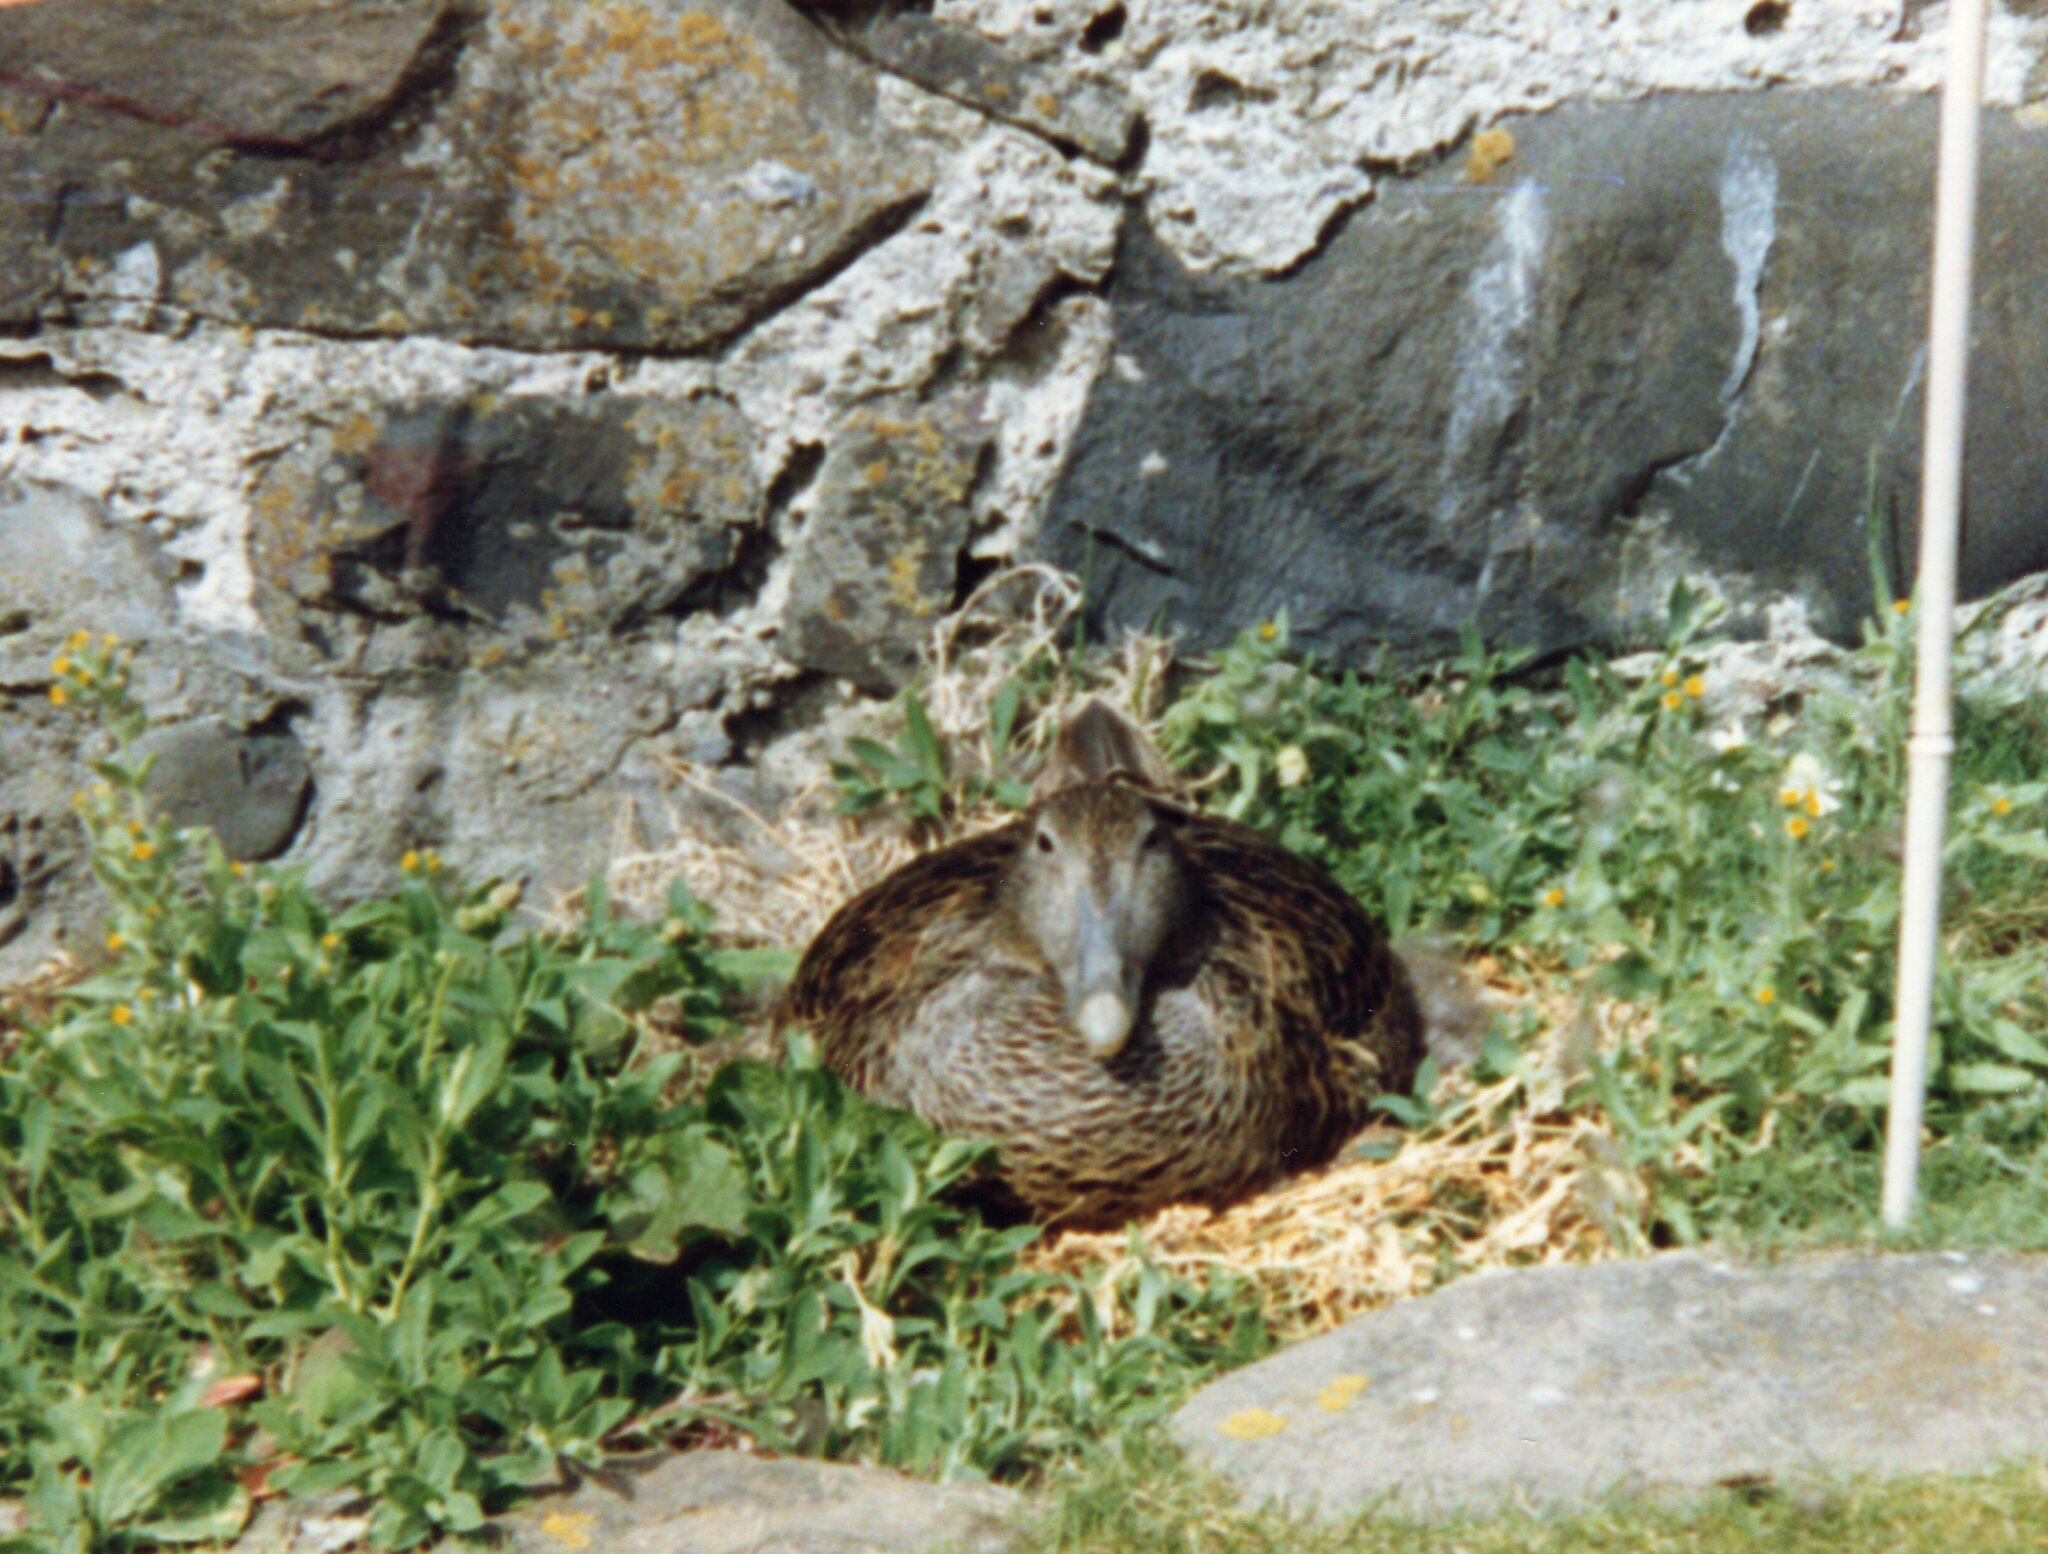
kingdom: Animalia
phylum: Chordata
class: Aves
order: Anseriformes
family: Anatidae
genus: Somateria
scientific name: Somateria mollissima
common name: Common eider
